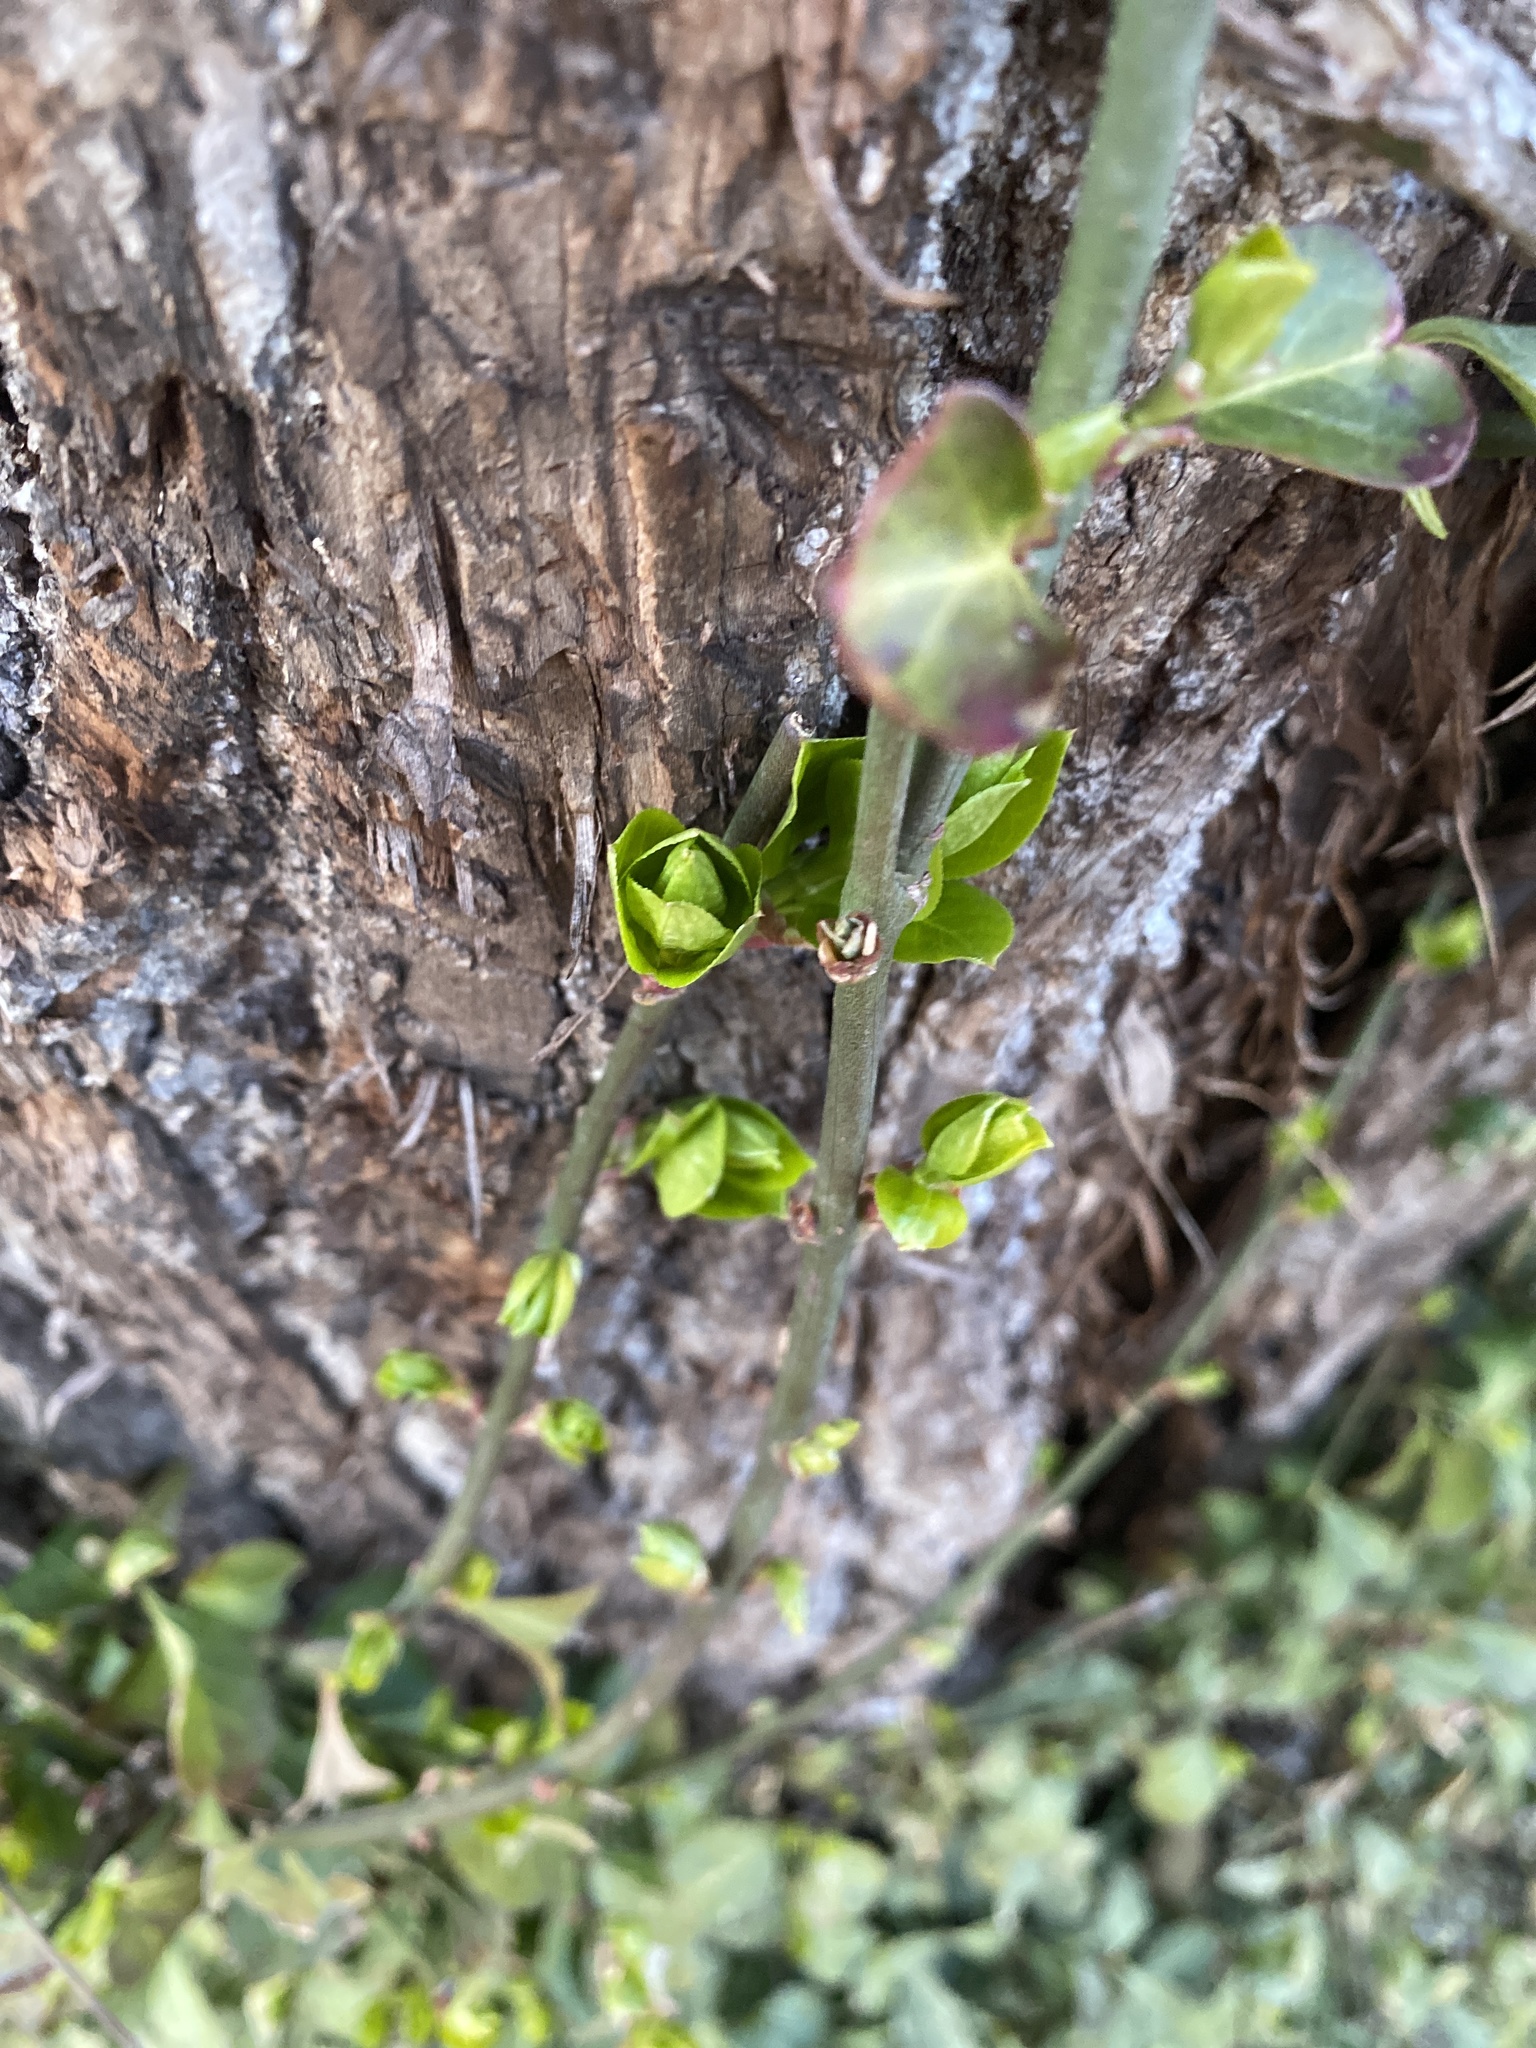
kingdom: Plantae
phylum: Tracheophyta
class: Magnoliopsida
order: Celastrales
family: Celastraceae
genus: Euonymus
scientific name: Euonymus fortunei
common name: Climbing euonymus
